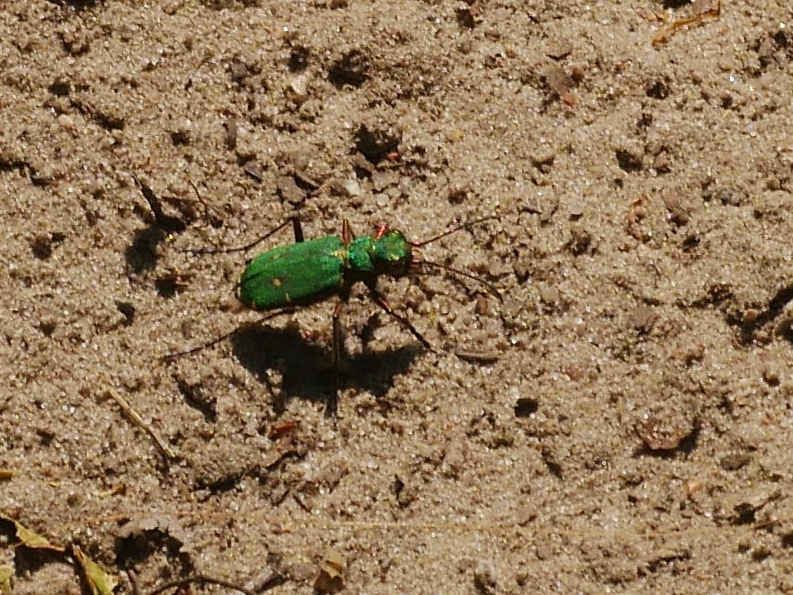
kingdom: Animalia
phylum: Arthropoda
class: Insecta
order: Coleoptera
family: Carabidae
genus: Cicindela
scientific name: Cicindela campestris
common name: Common tiger beetle
